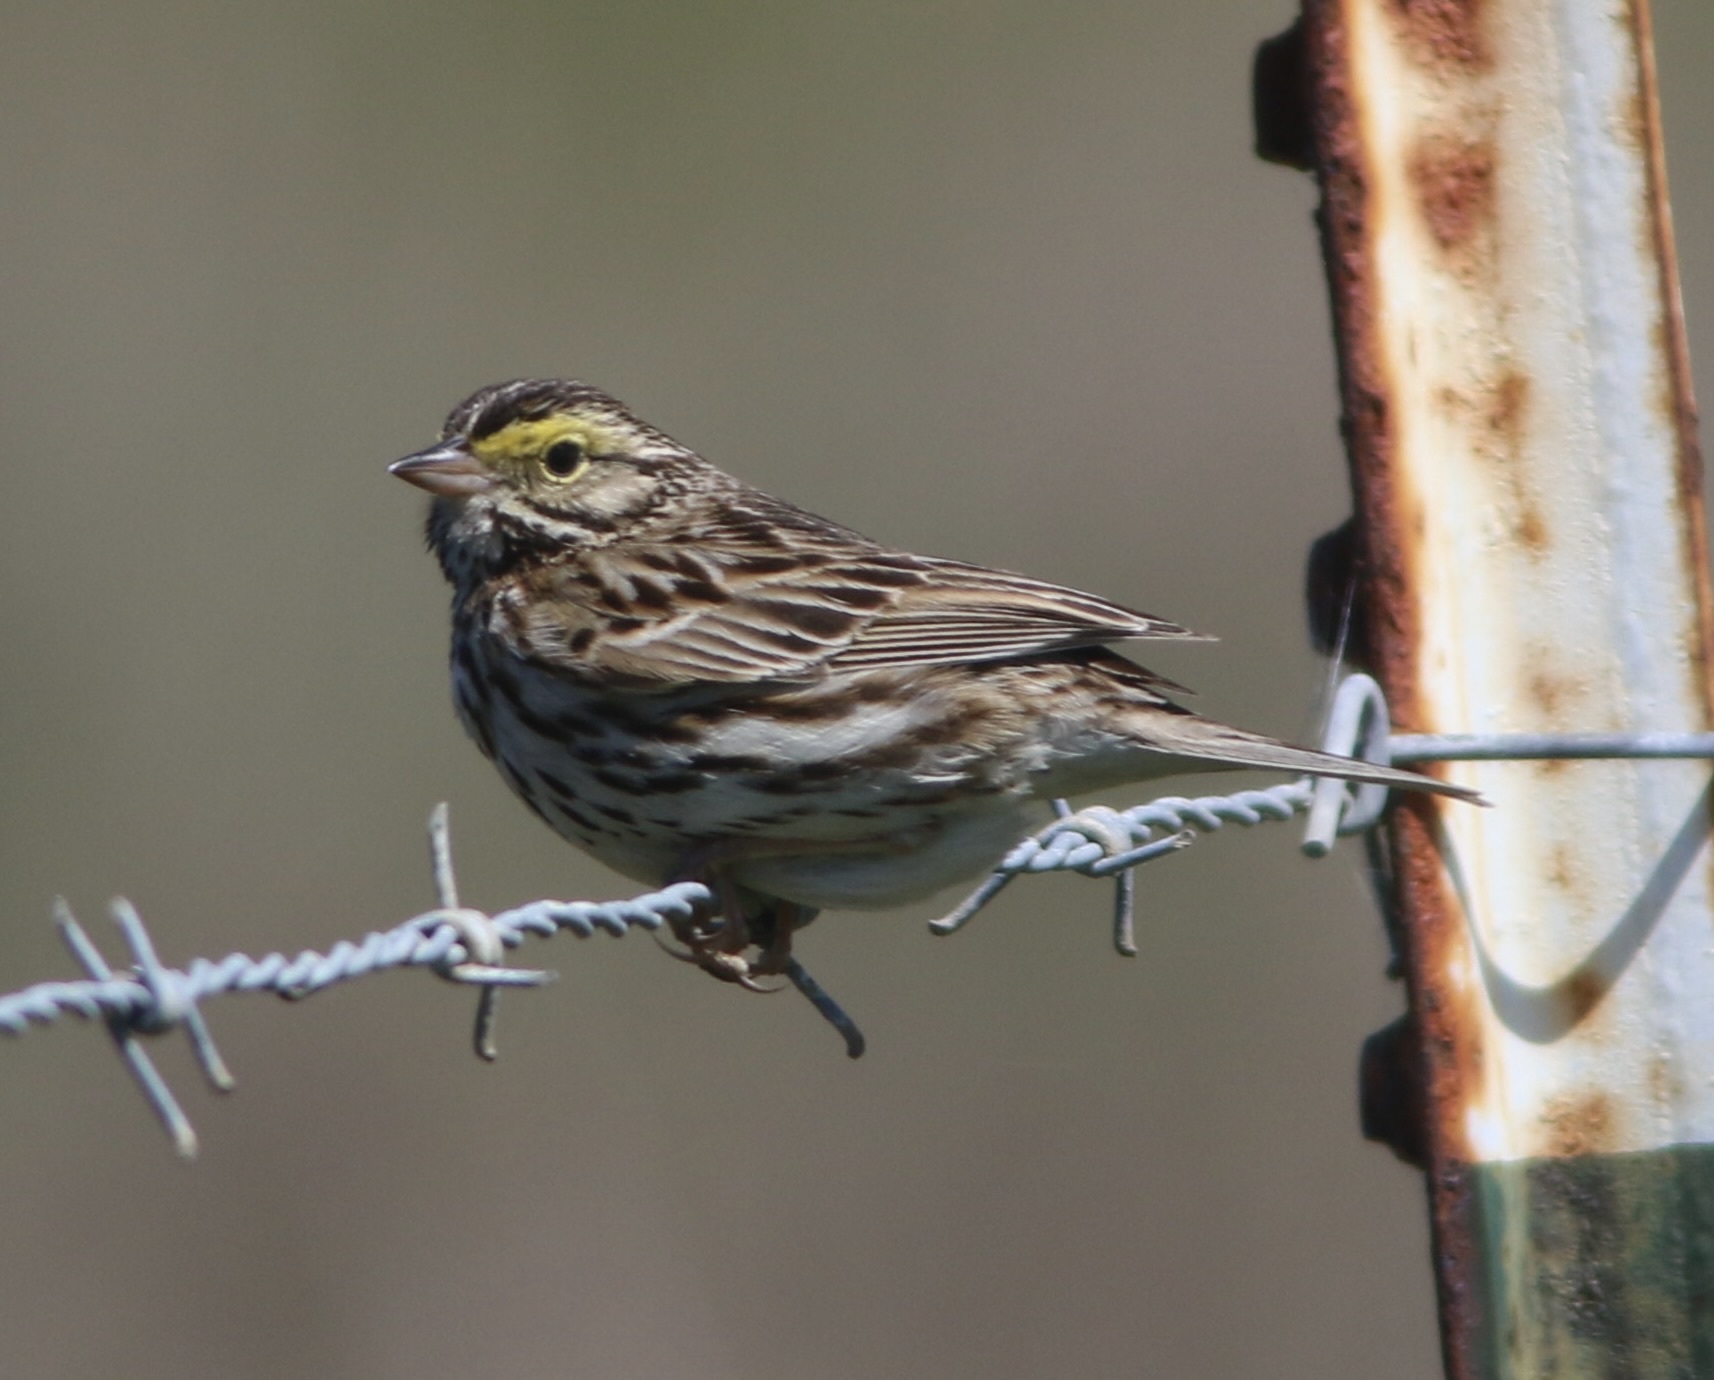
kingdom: Animalia
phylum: Chordata
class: Aves
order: Passeriformes
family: Passerellidae
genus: Passerculus
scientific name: Passerculus sandwichensis
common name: Savannah sparrow
